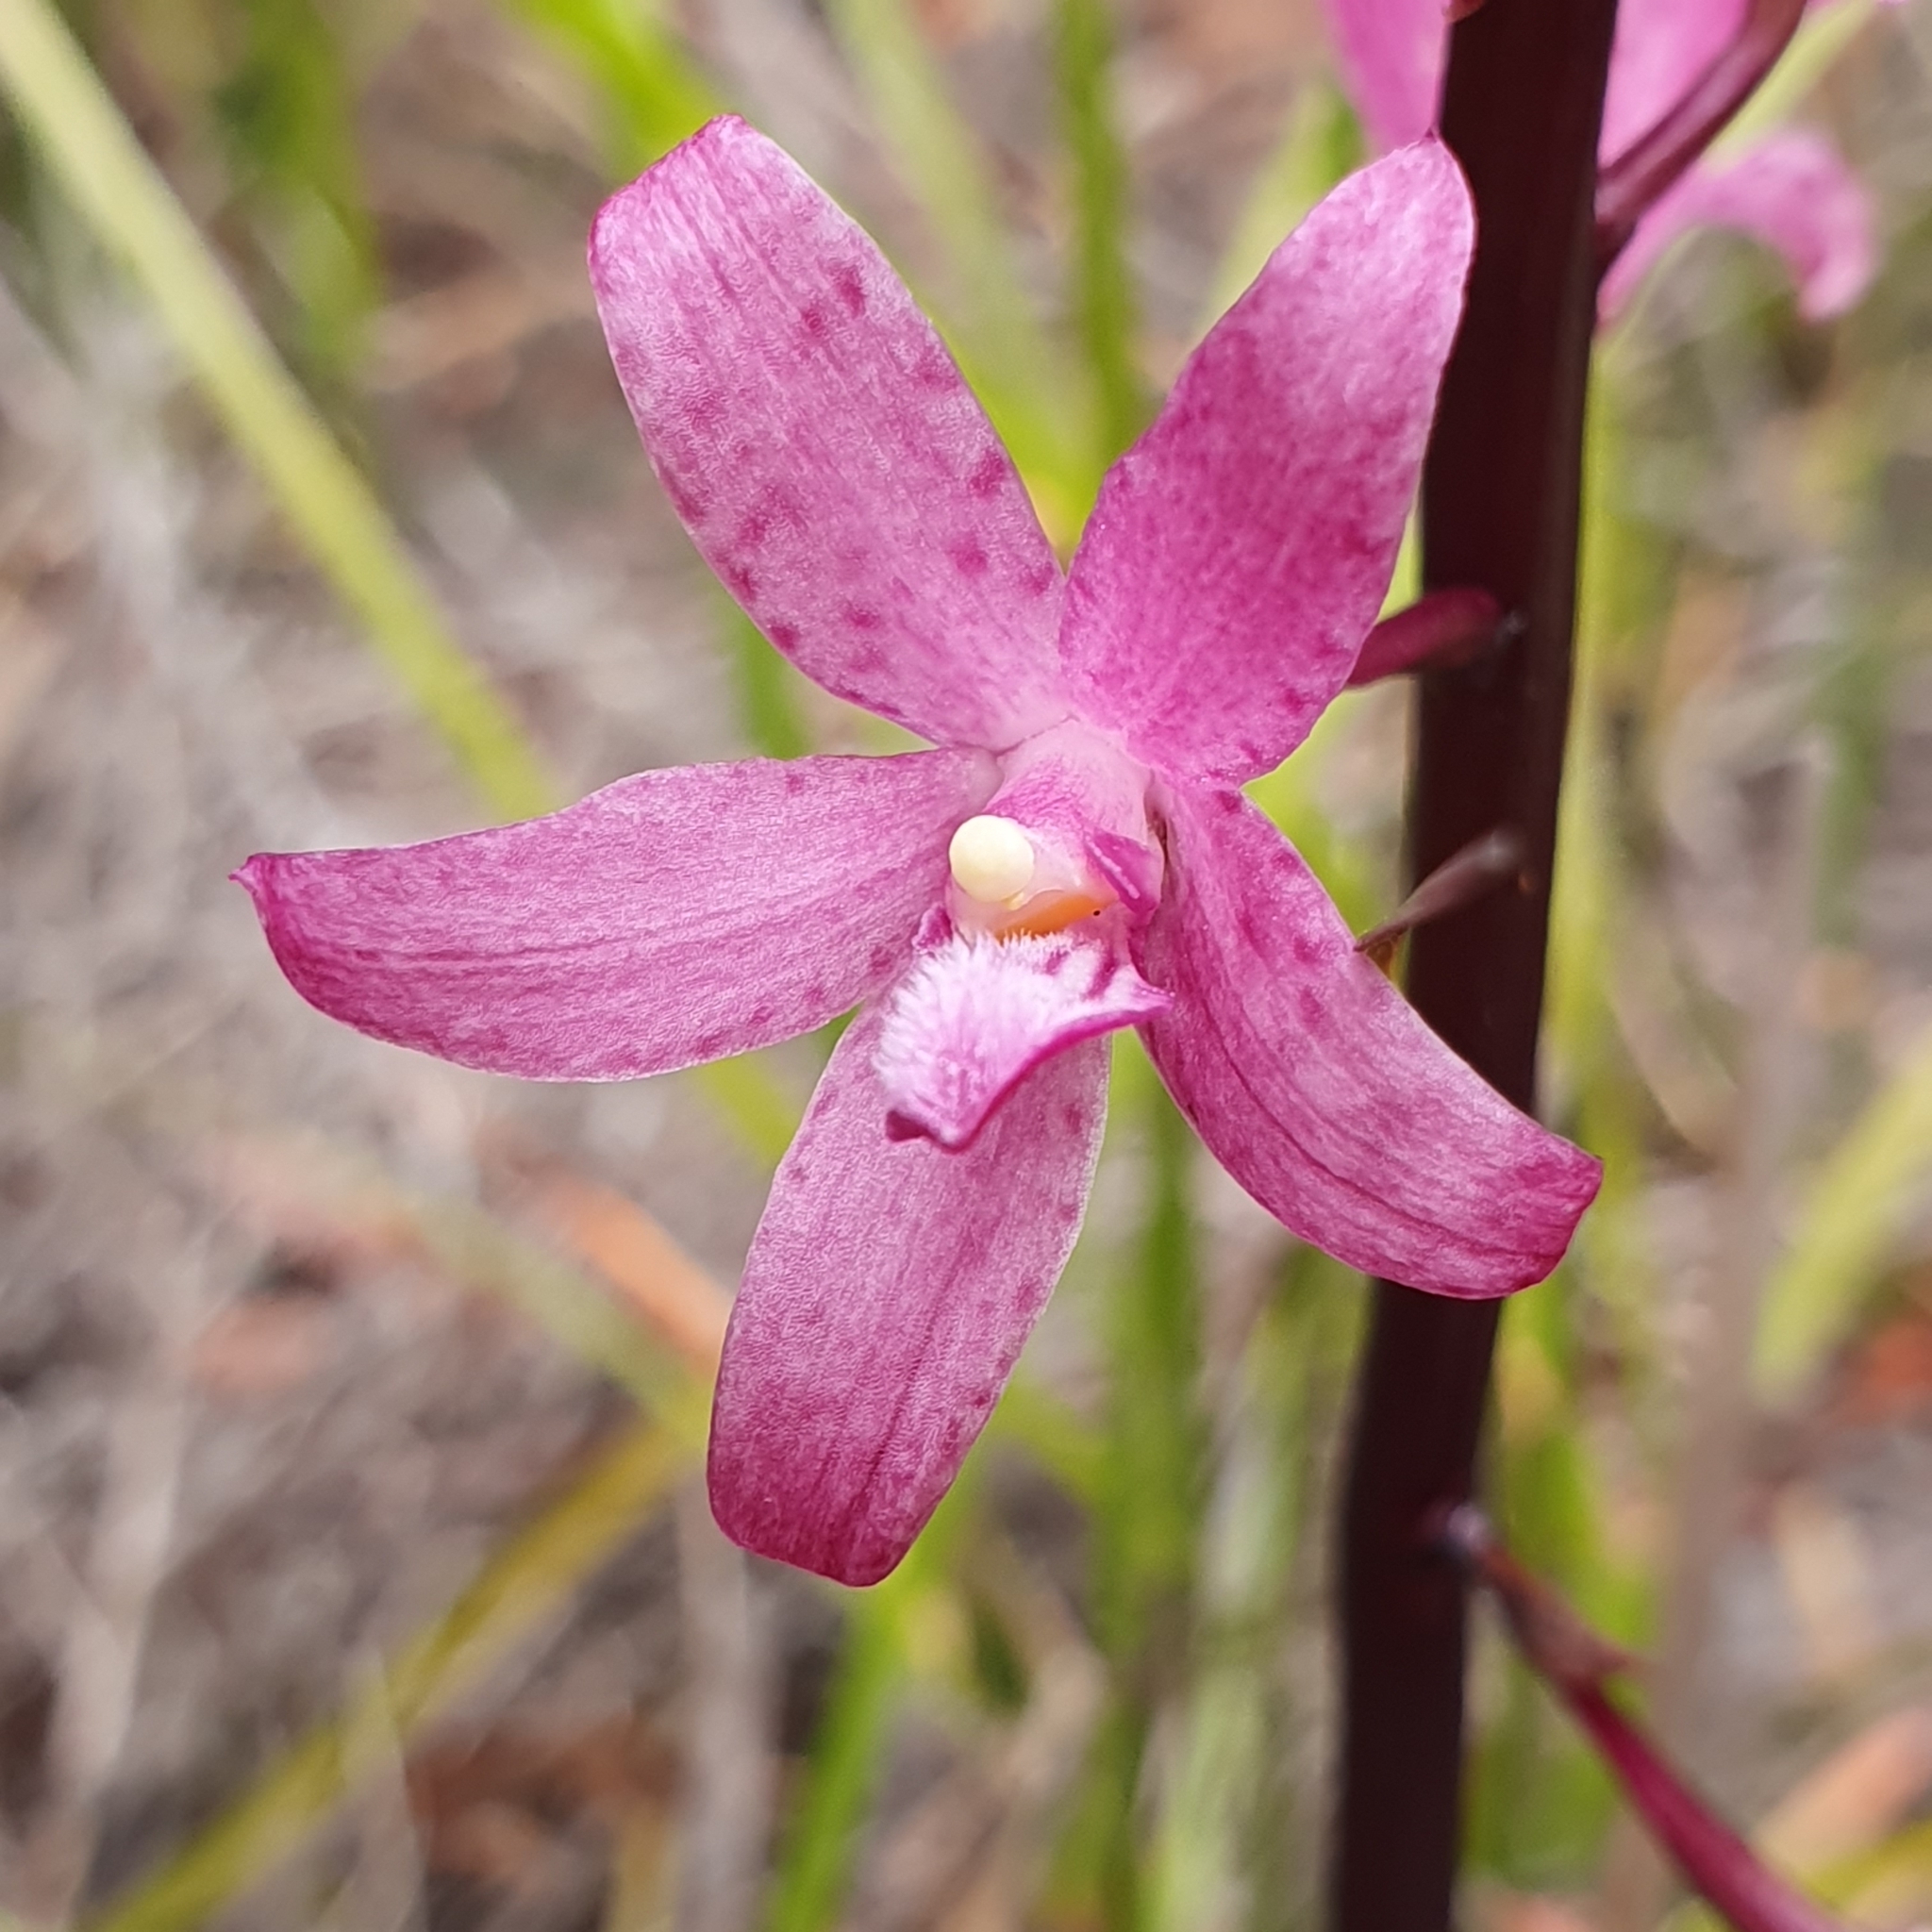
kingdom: Plantae
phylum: Tracheophyta
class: Liliopsida
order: Asparagales
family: Orchidaceae
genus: Dipodium
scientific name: Dipodium roseum
